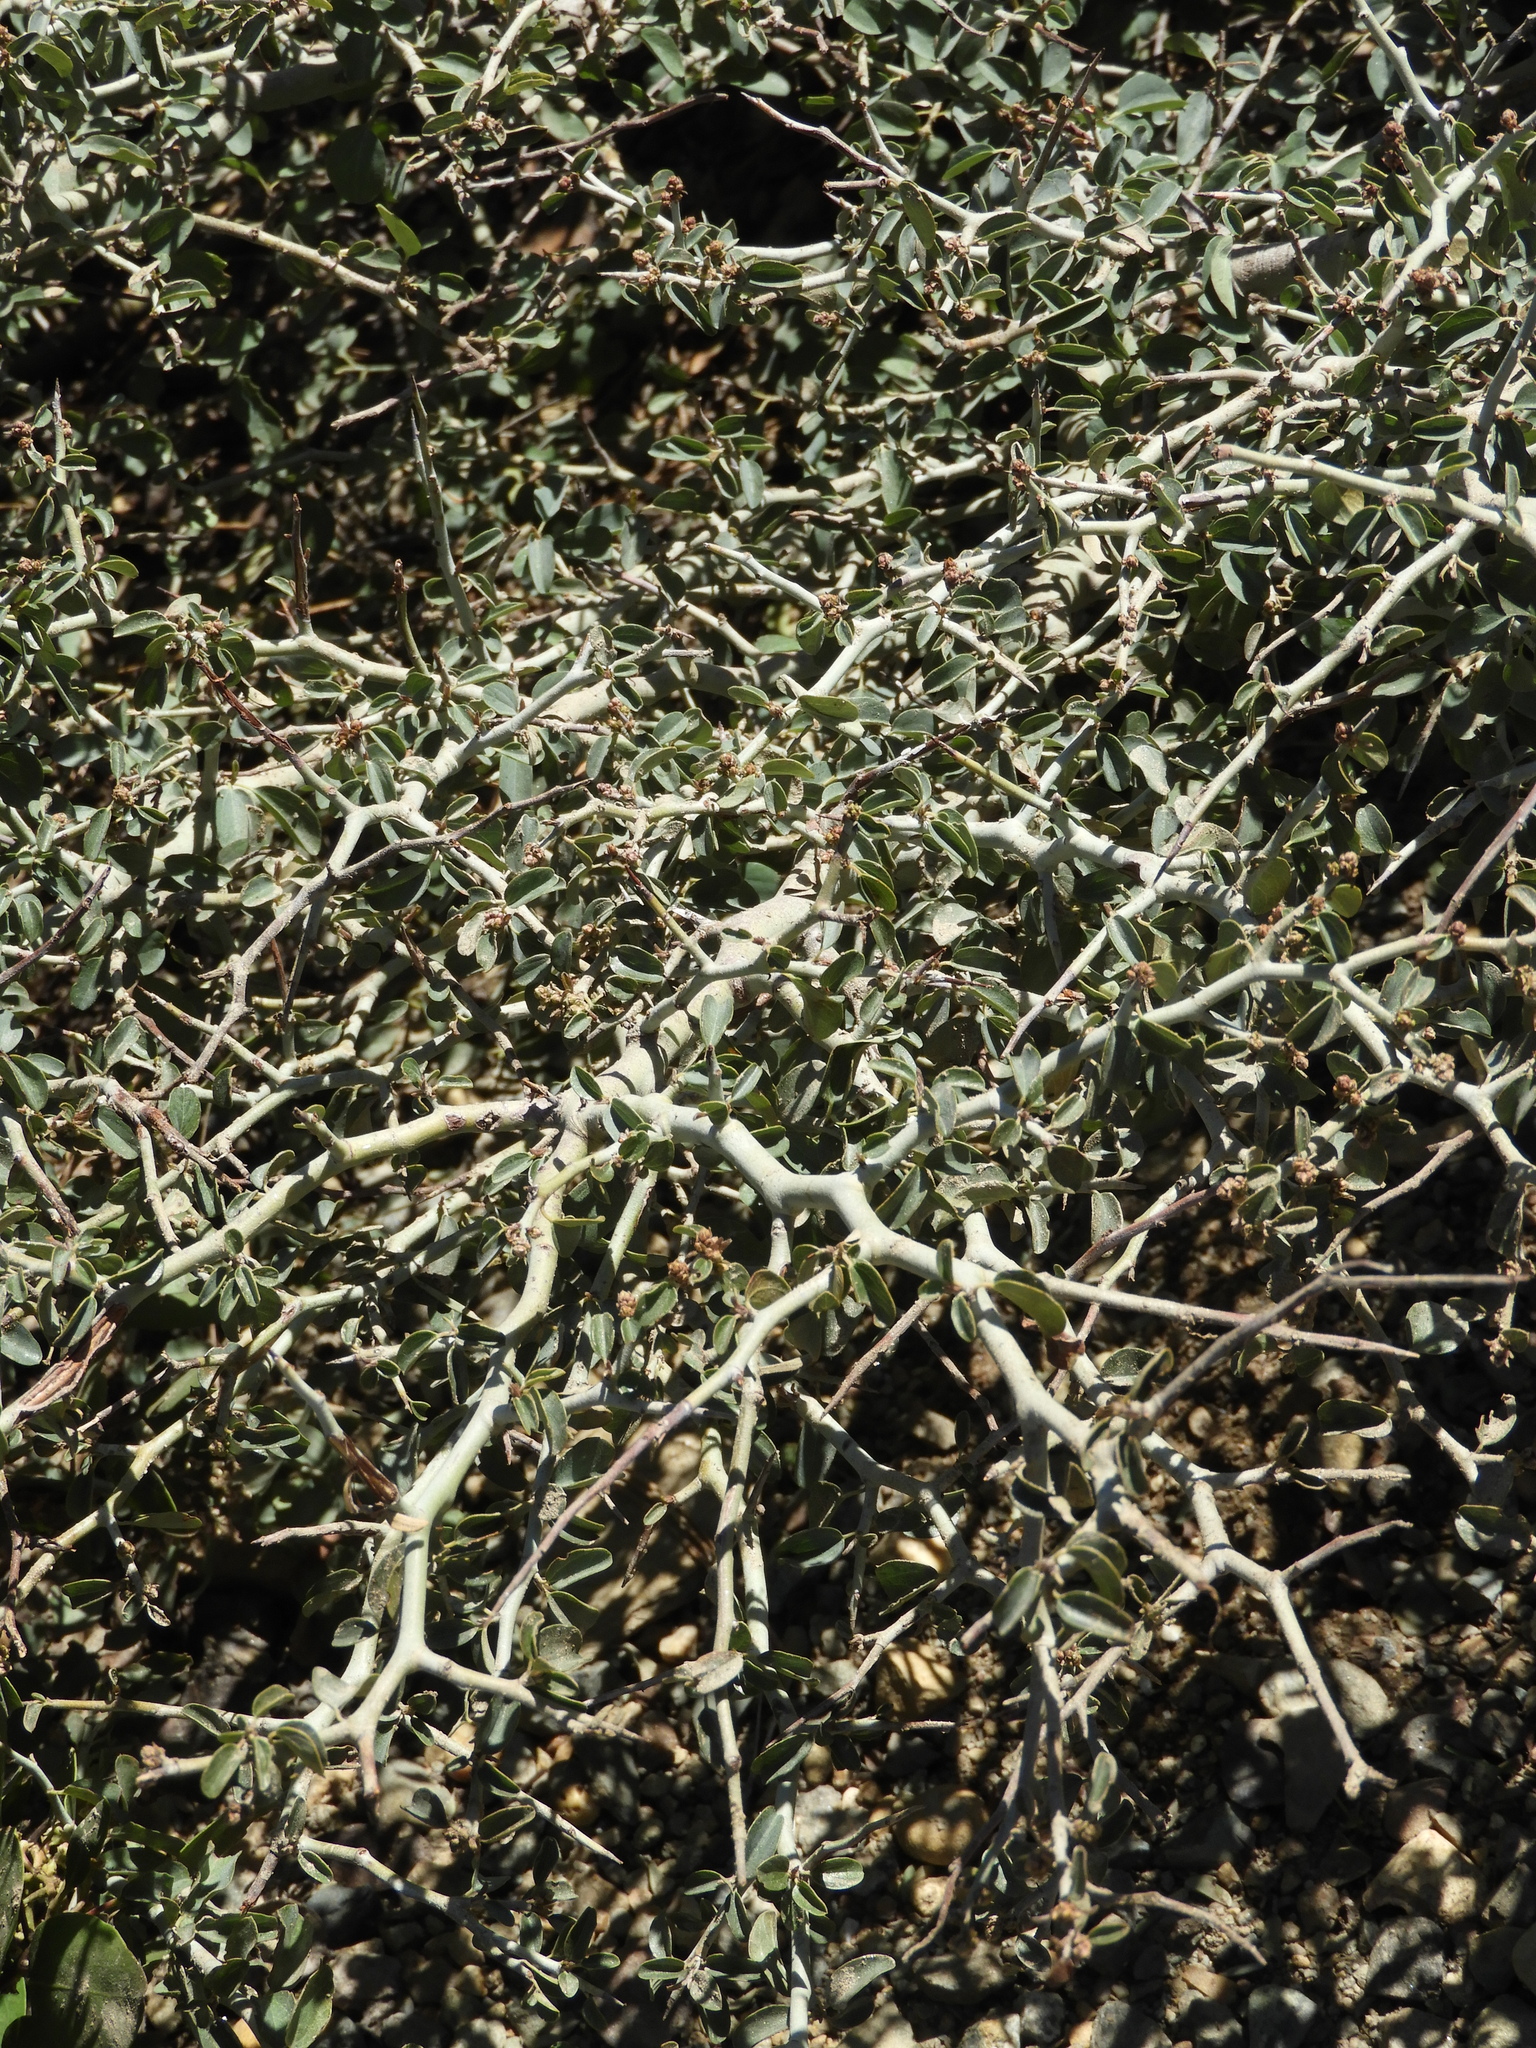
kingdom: Plantae
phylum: Tracheophyta
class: Magnoliopsida
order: Rosales
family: Rhamnaceae
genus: Ceanothus
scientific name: Ceanothus cordulatus
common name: Mountain whitethorn
